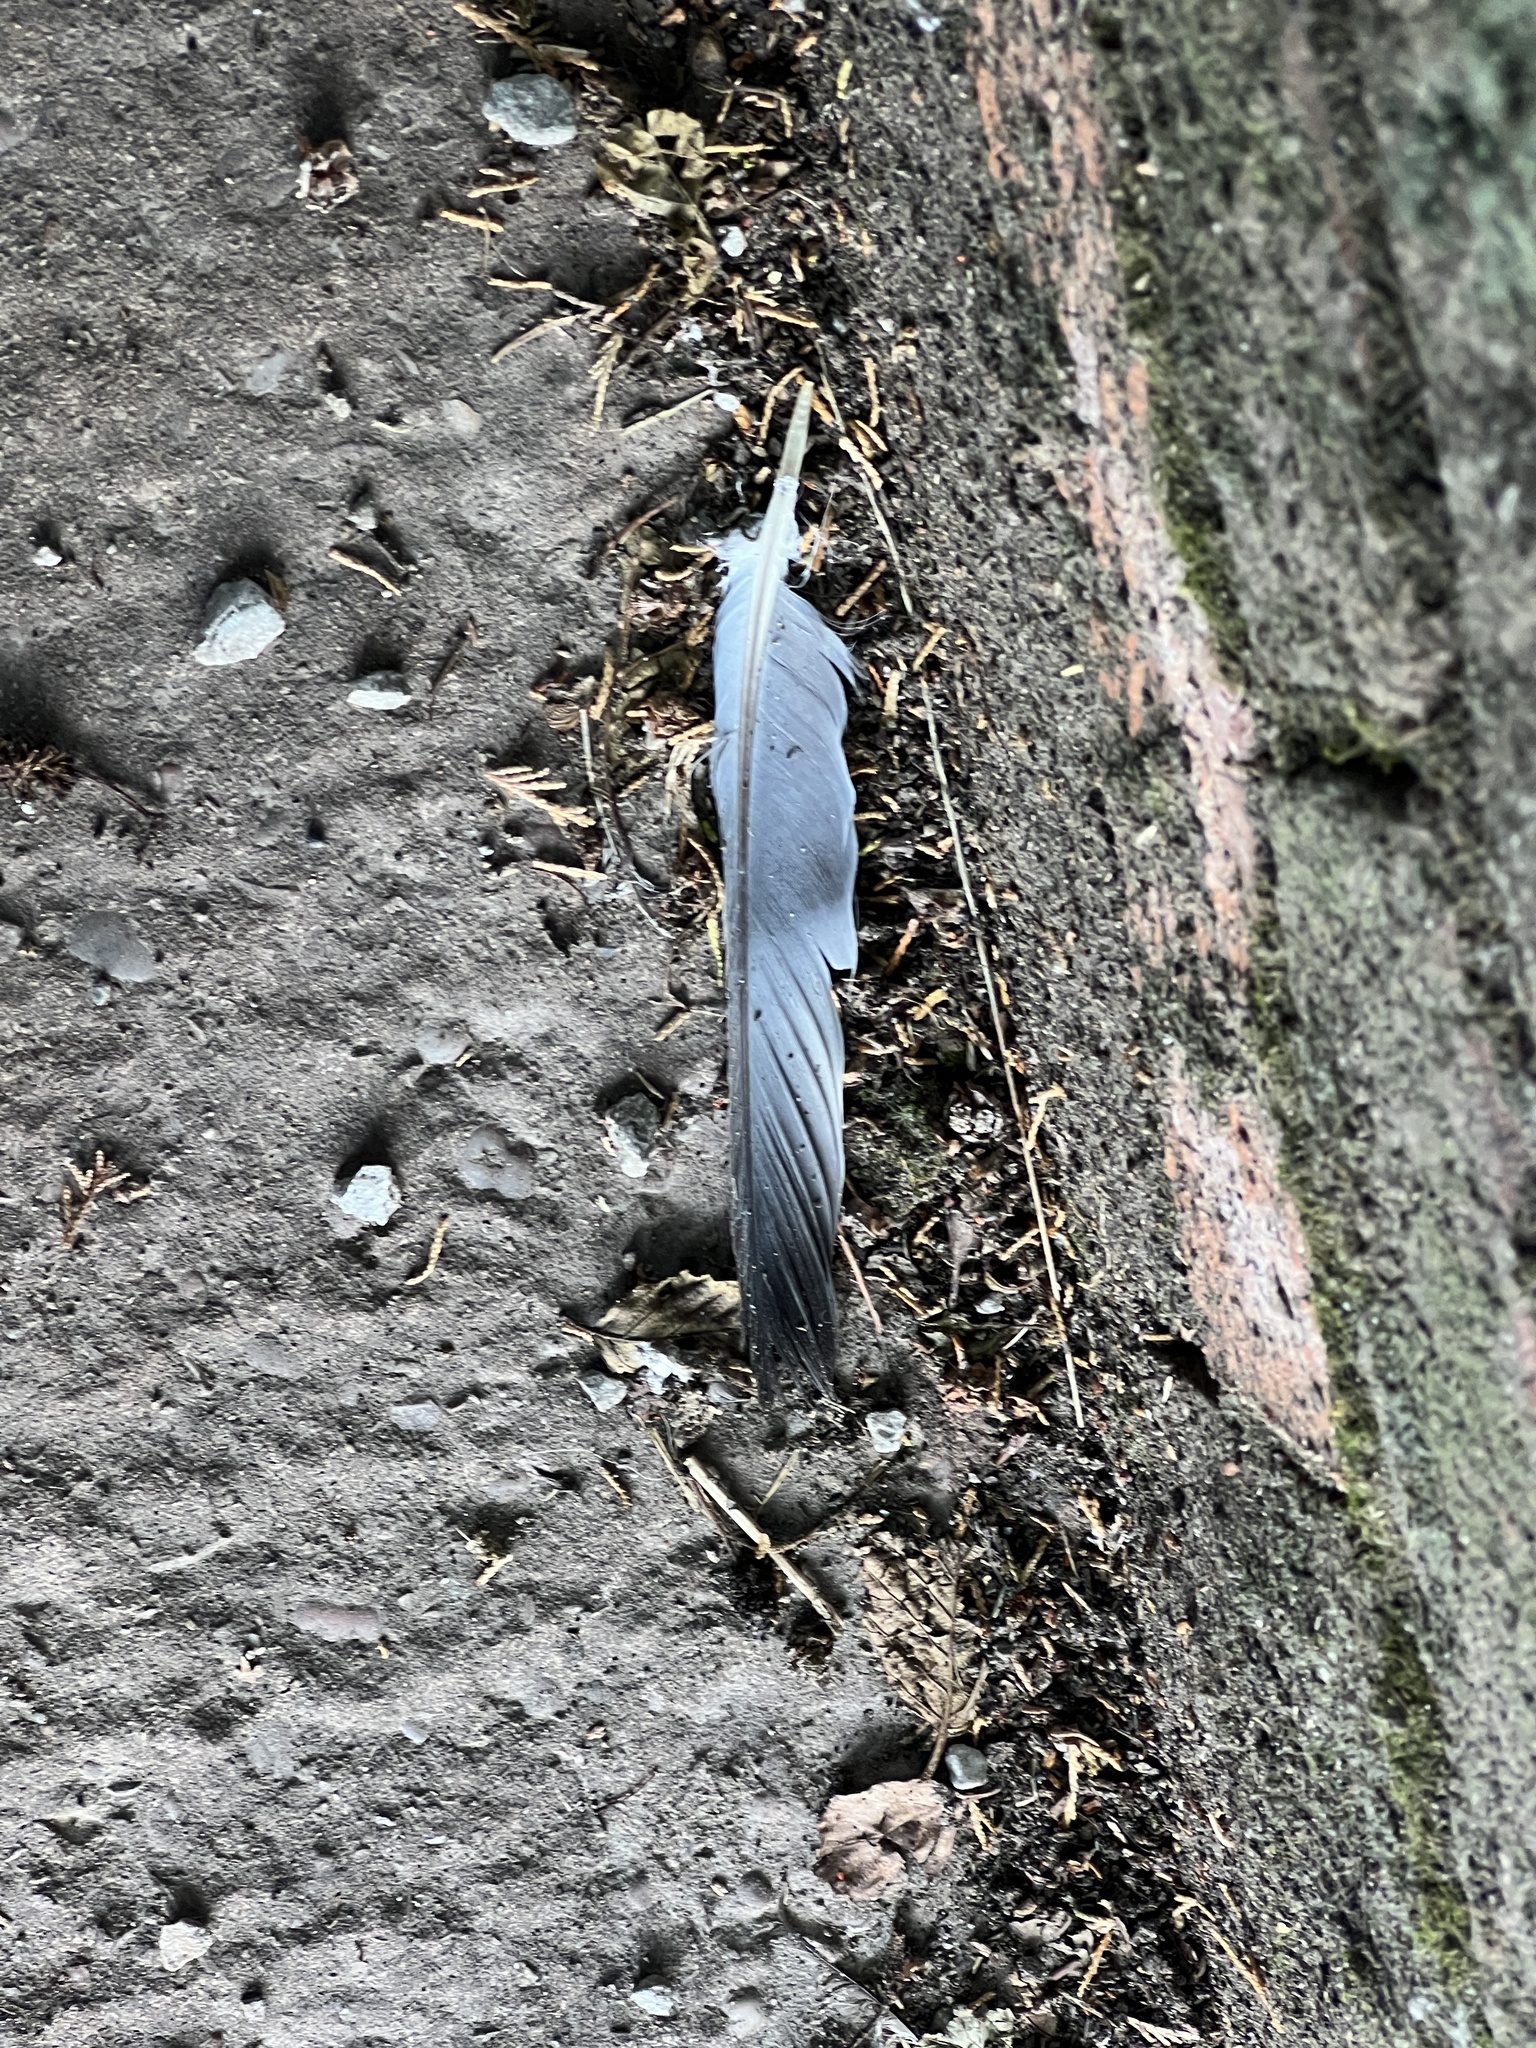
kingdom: Animalia
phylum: Chordata
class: Aves
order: Columbiformes
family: Columbidae
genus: Columba
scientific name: Columba palumbus
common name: Common wood pigeon
